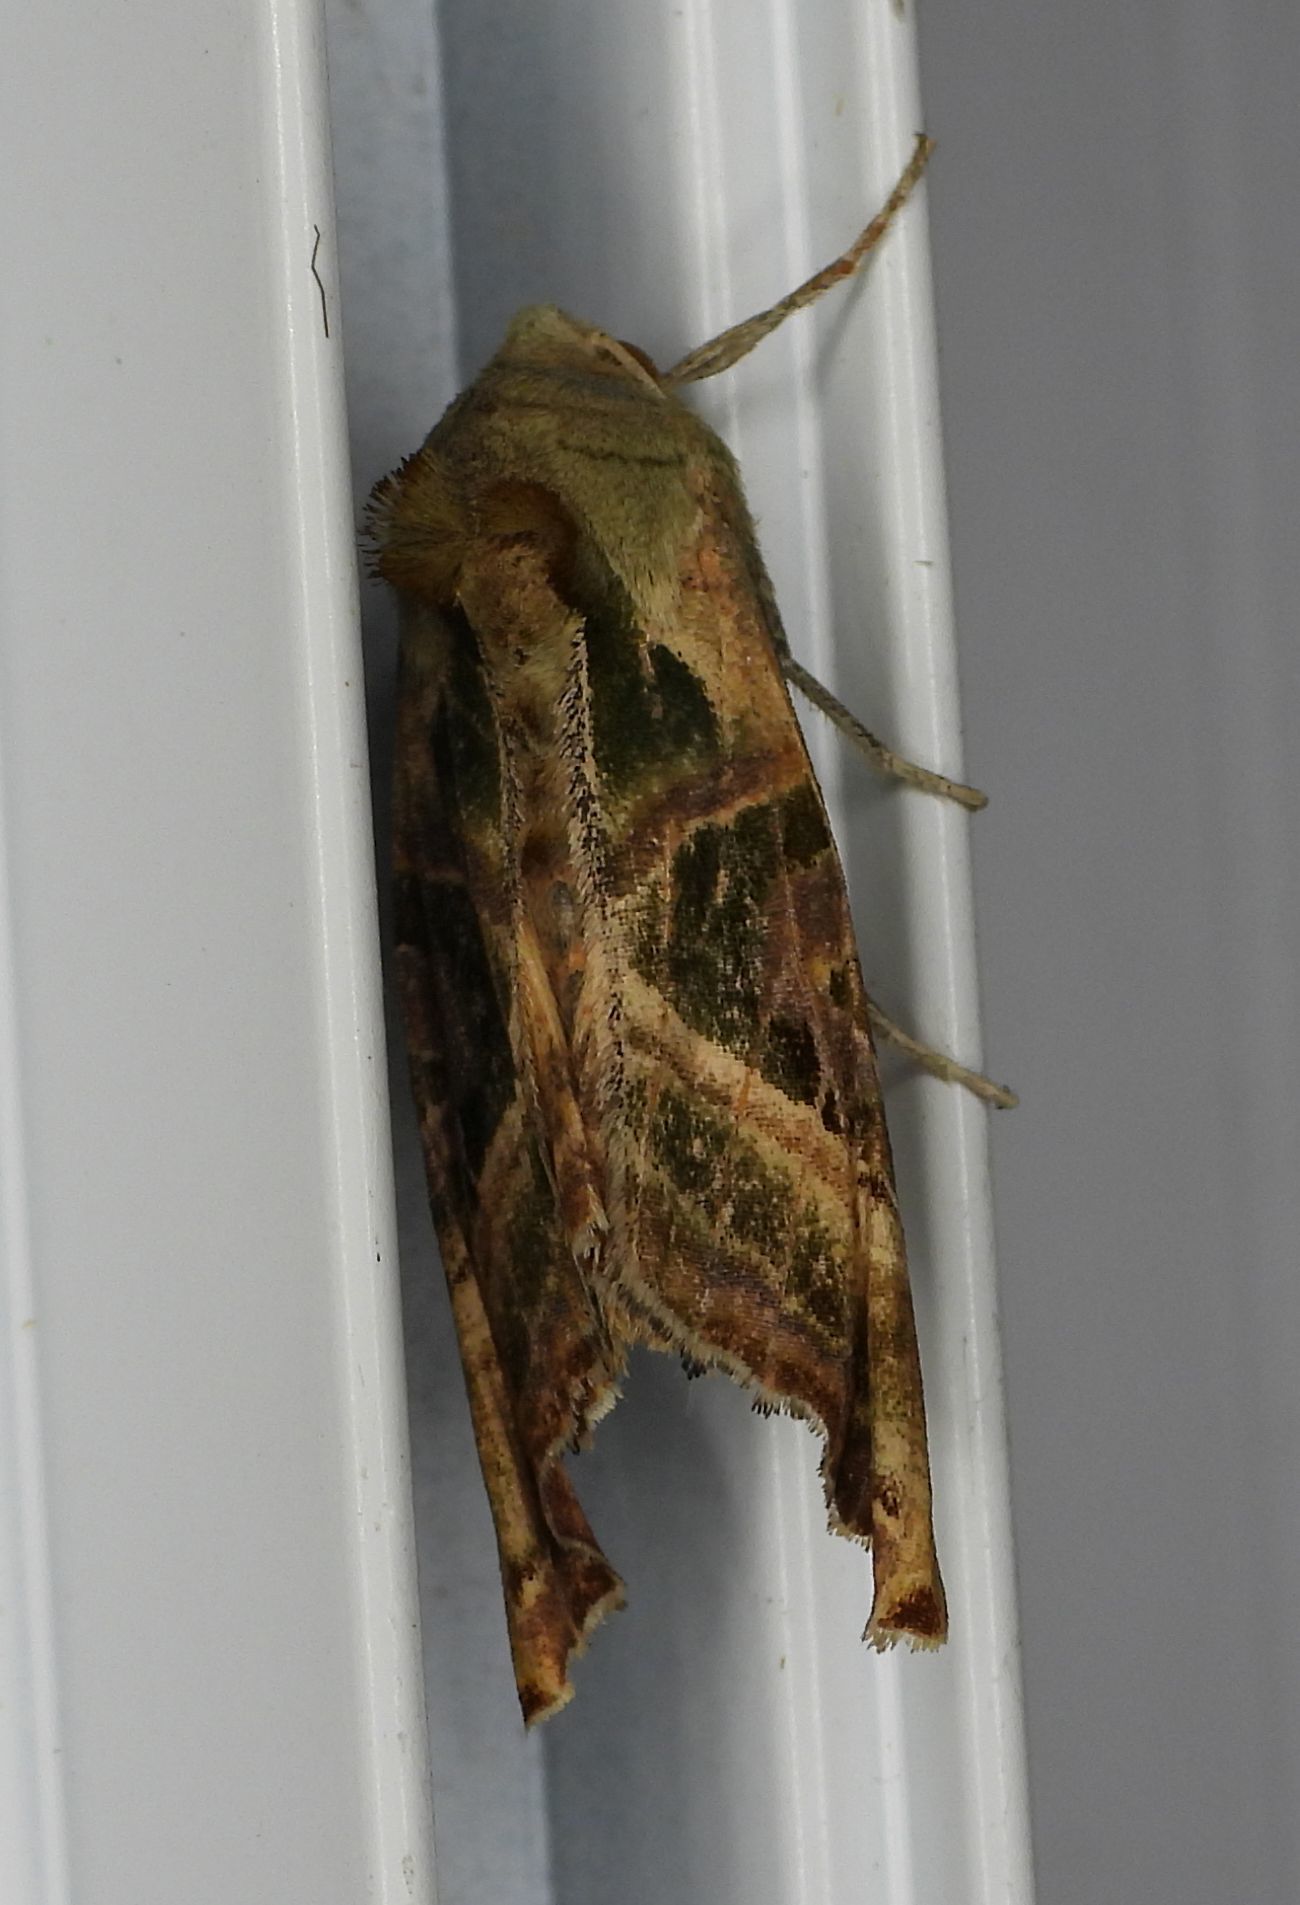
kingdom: Animalia
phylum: Arthropoda
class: Insecta
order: Lepidoptera
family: Noctuidae
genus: Phlogophora
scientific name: Phlogophora iris
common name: Olive angle shades
